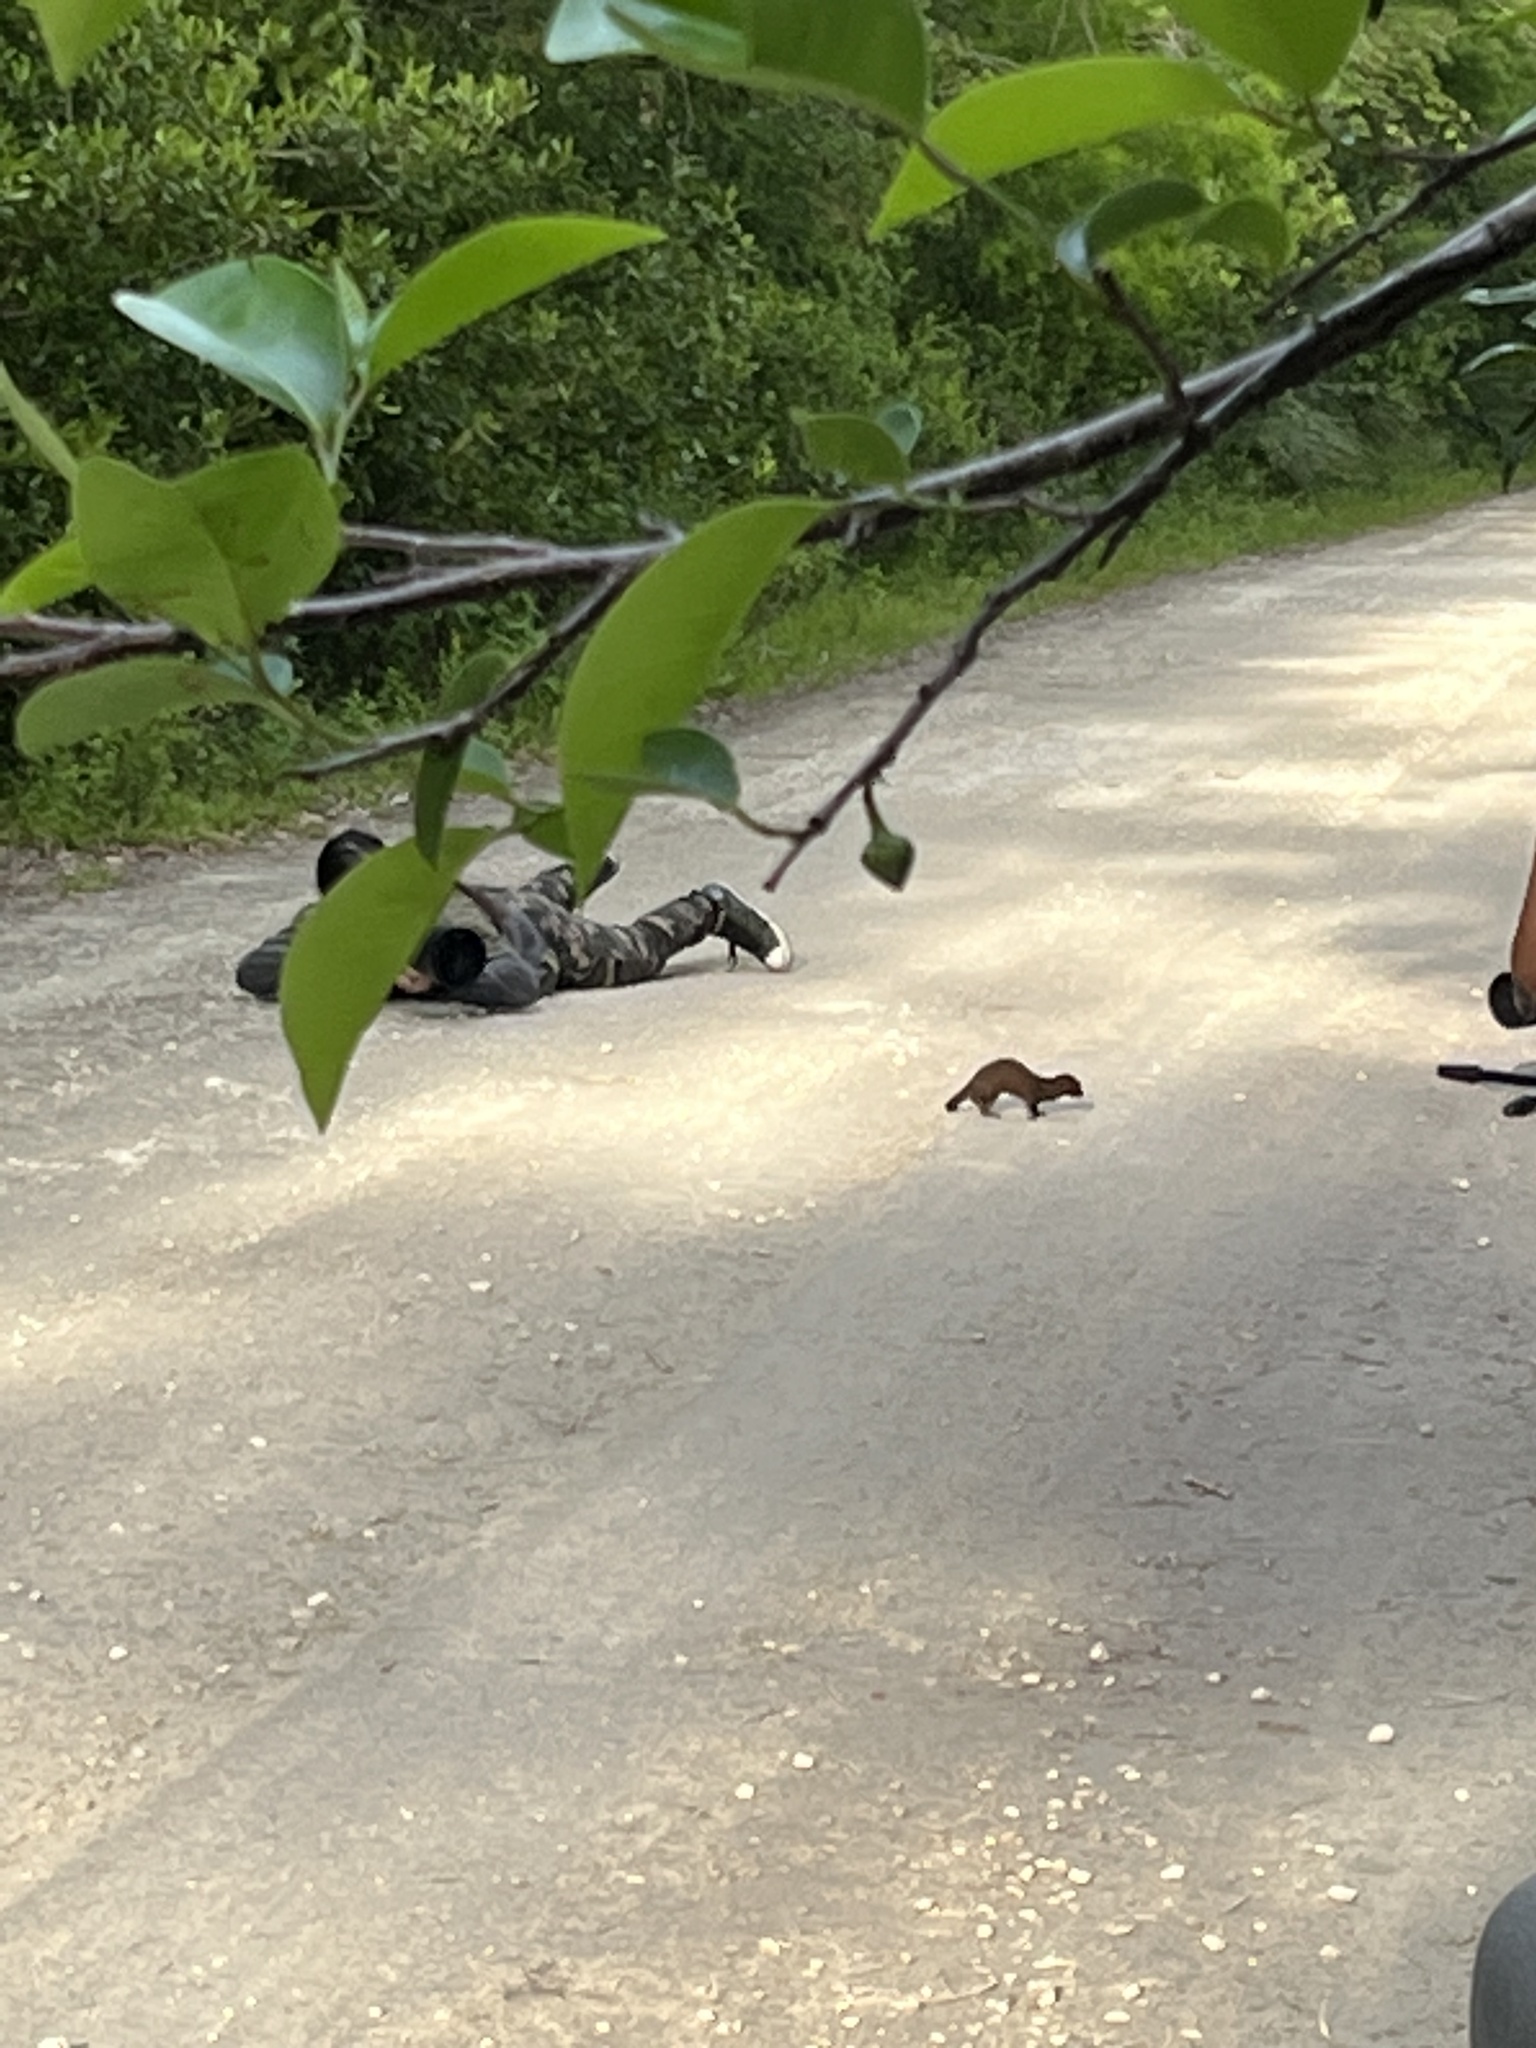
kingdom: Animalia
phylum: Chordata
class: Mammalia
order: Carnivora
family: Mustelidae
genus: Mustela
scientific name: Mustela
